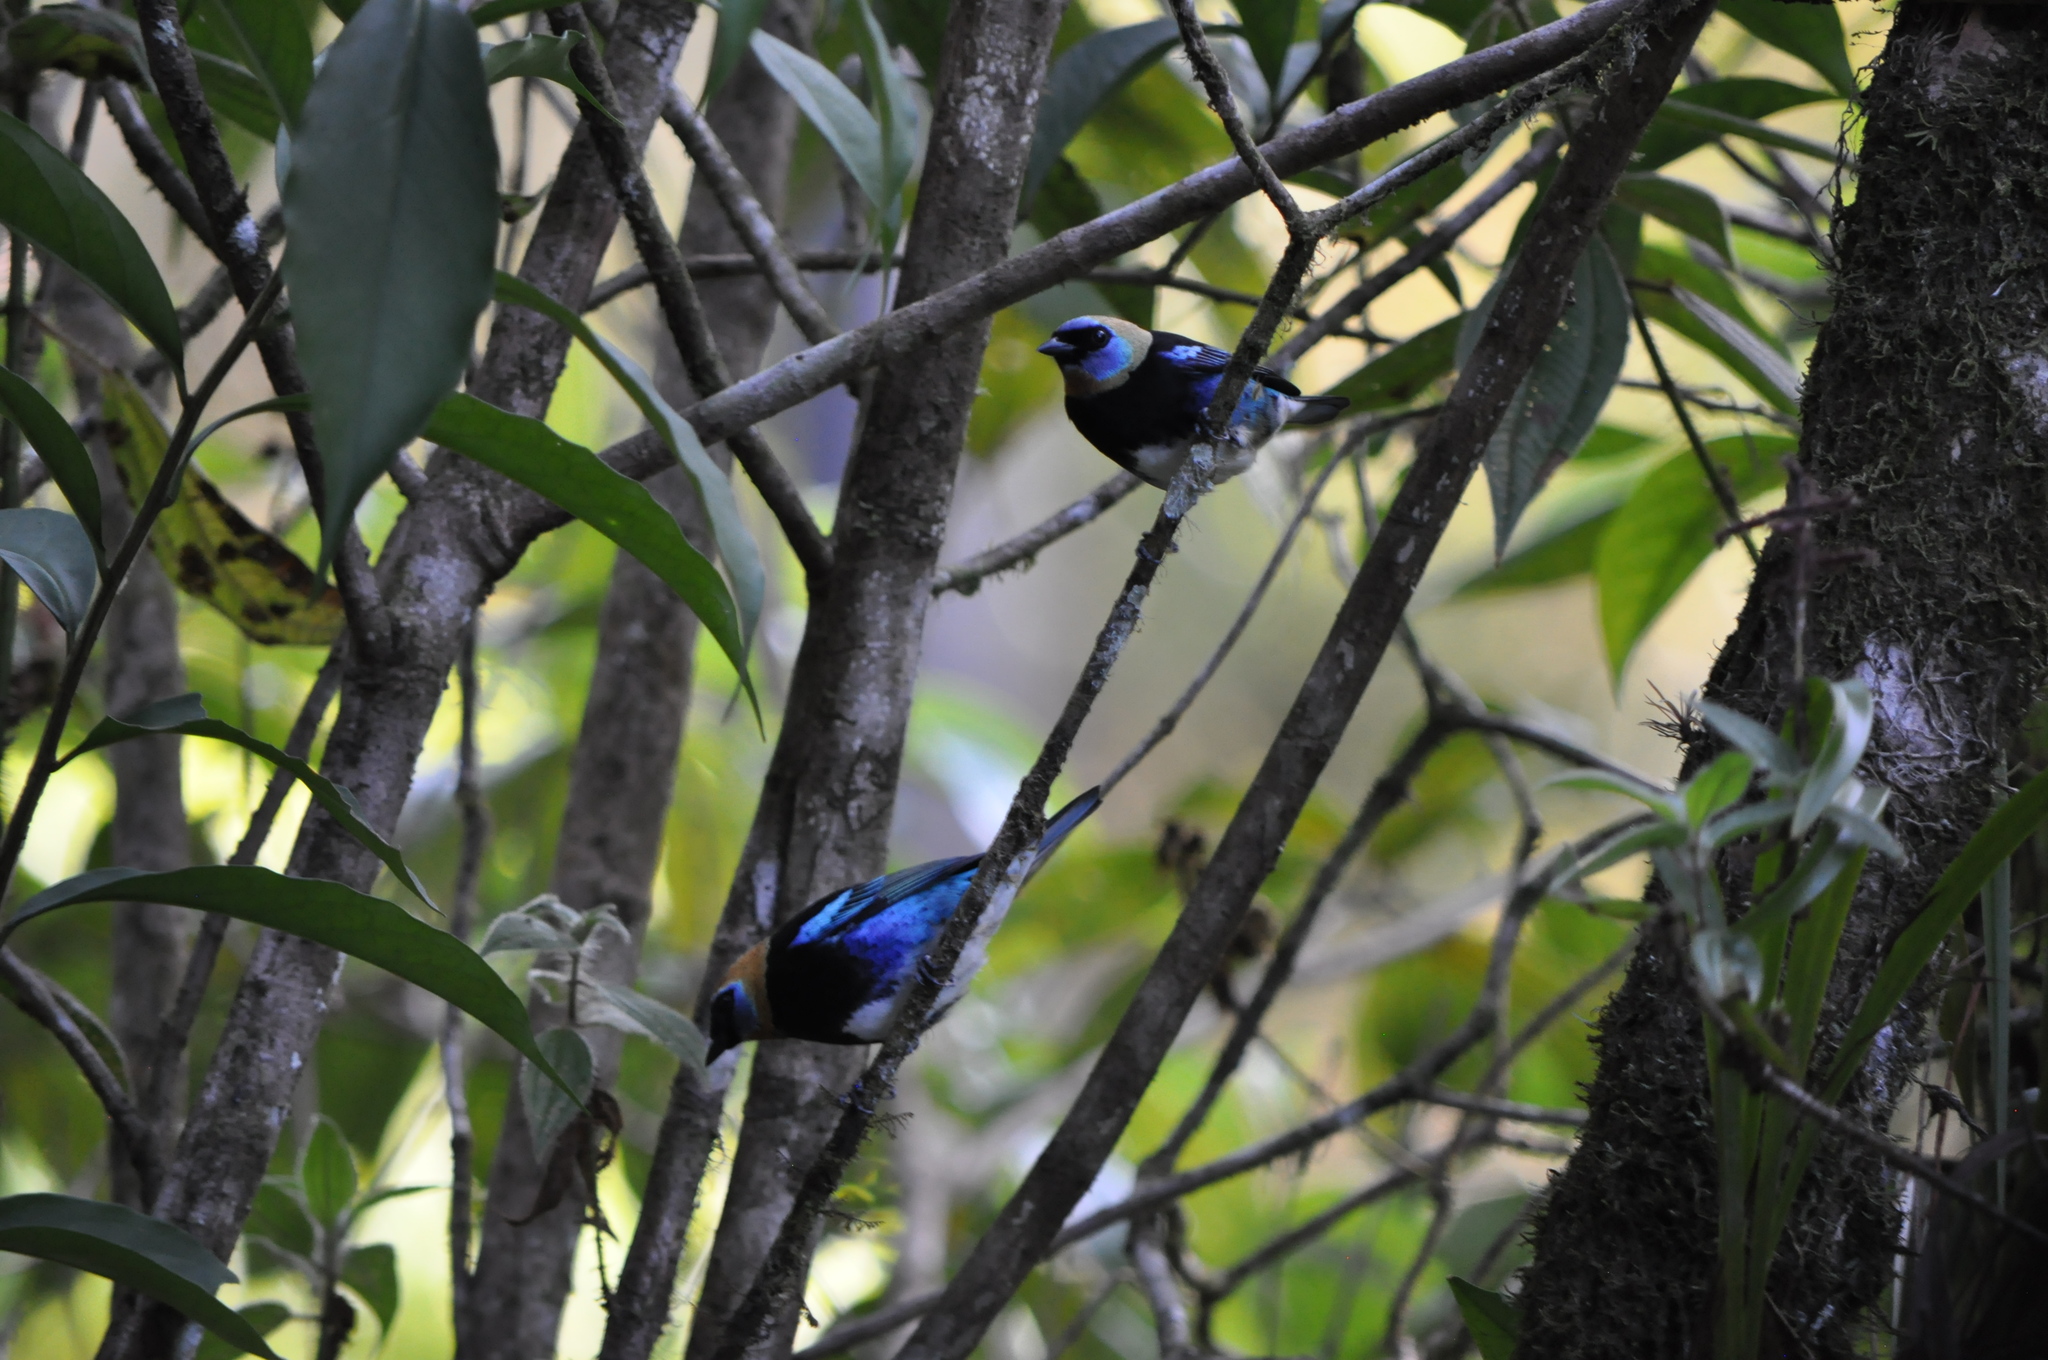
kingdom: Animalia
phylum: Chordata
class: Aves
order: Passeriformes
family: Thraupidae
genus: Stilpnia
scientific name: Stilpnia larvata
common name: Golden-hooded tanager
